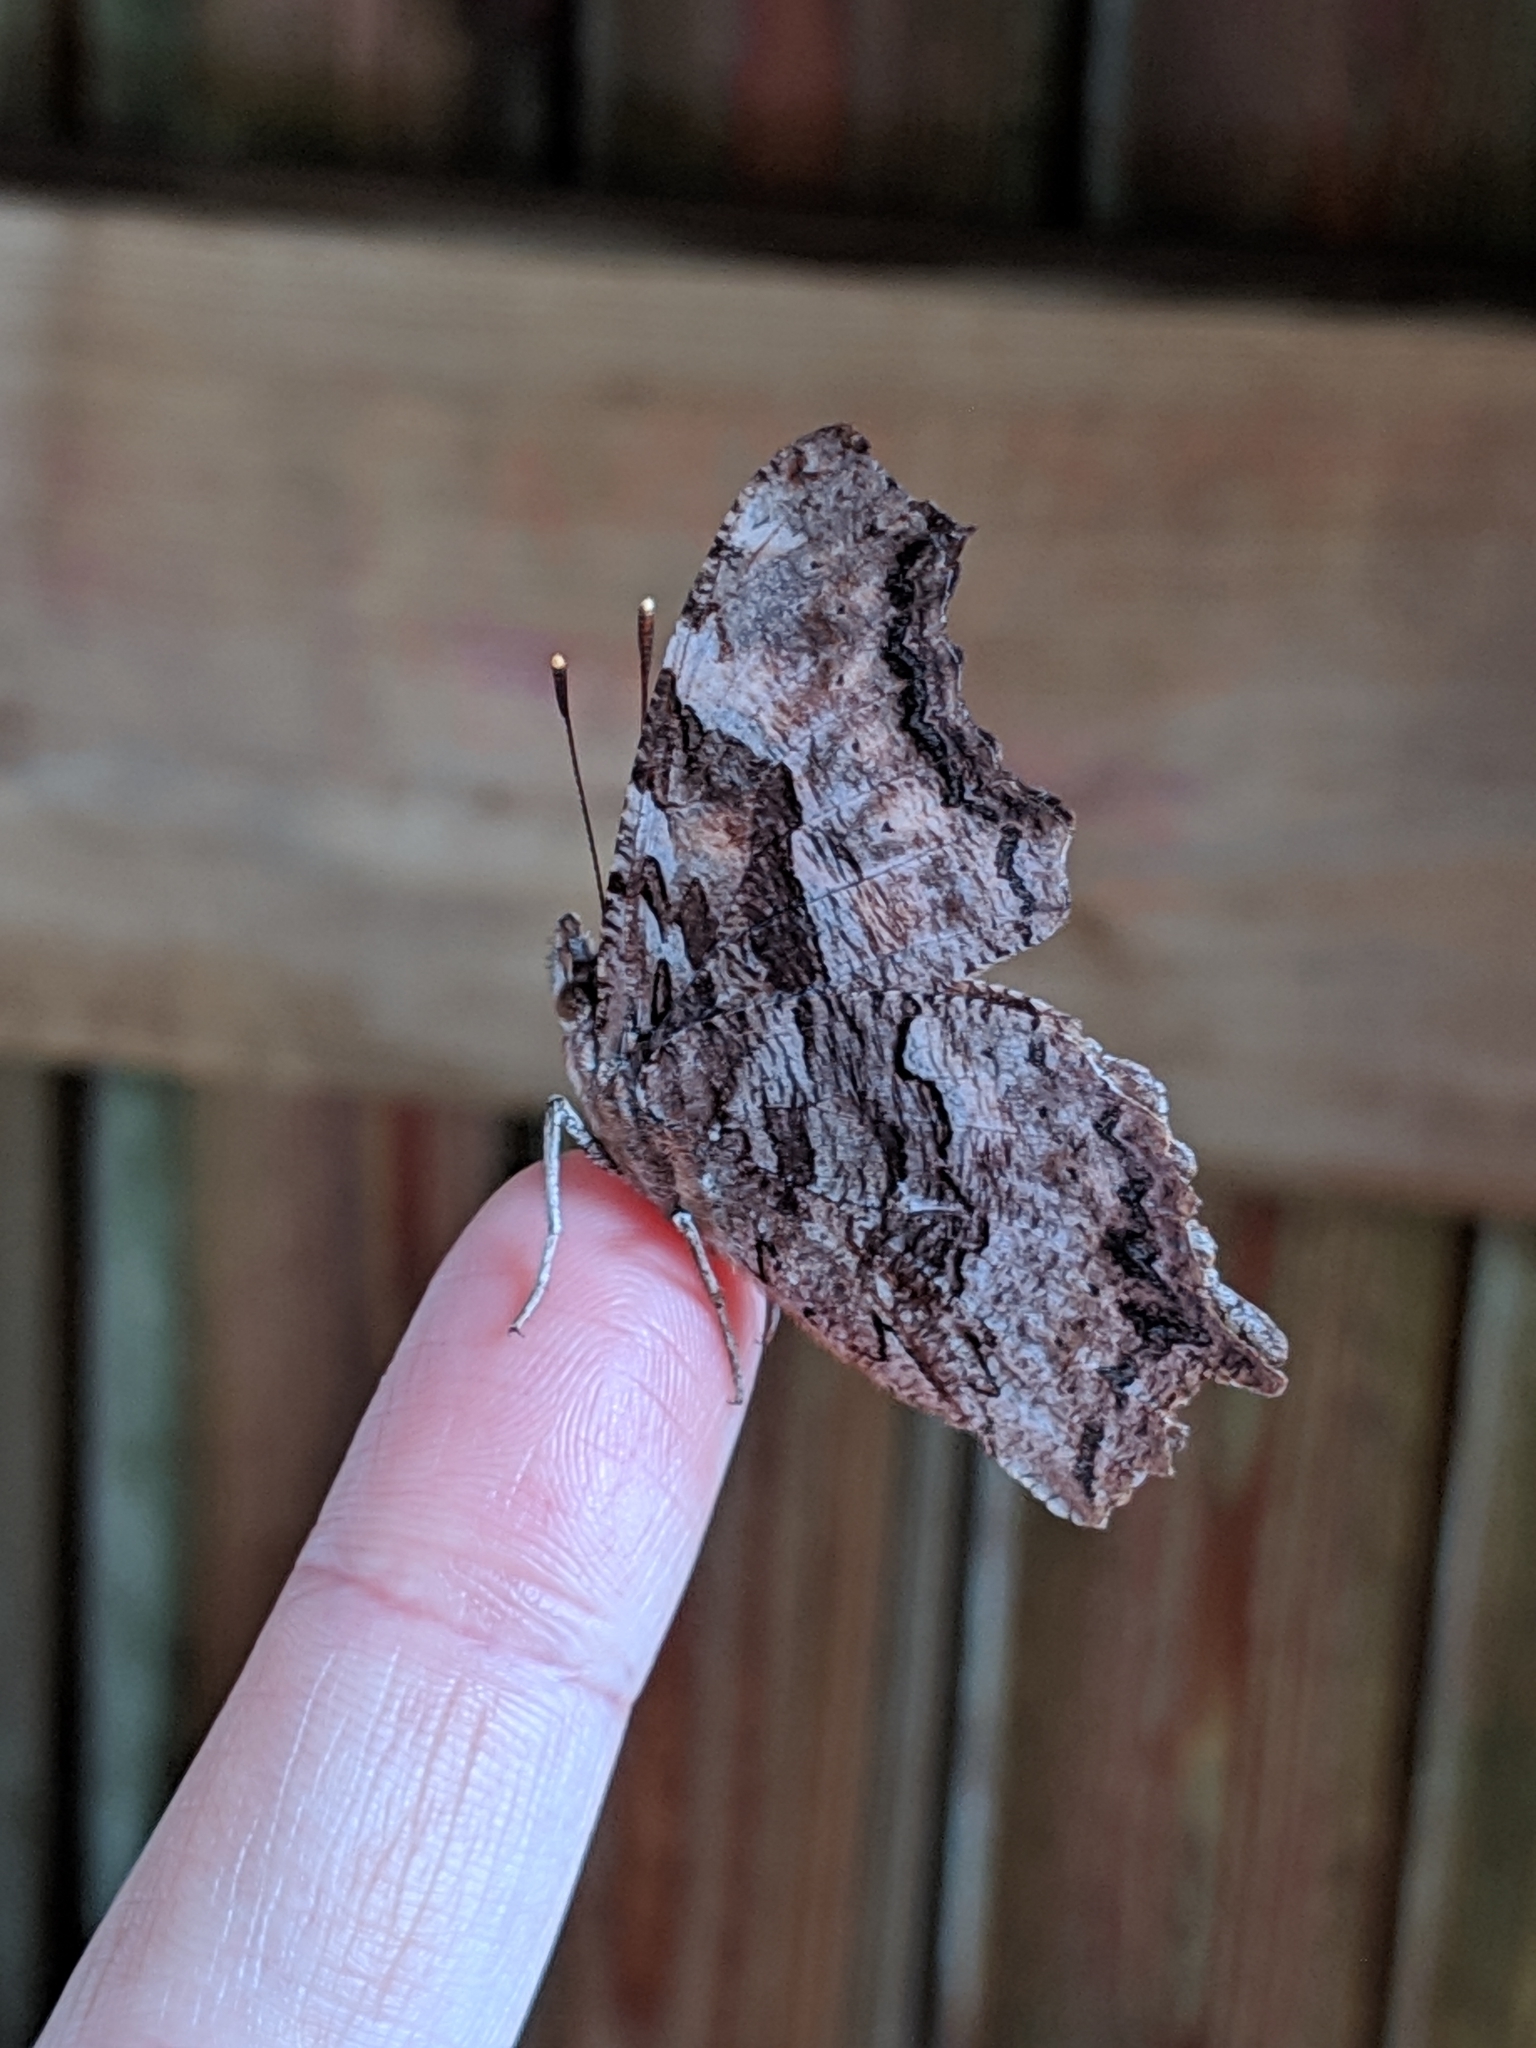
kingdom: Animalia
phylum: Arthropoda
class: Insecta
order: Lepidoptera
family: Nymphalidae
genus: Polygonia
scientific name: Polygonia vaualbum
